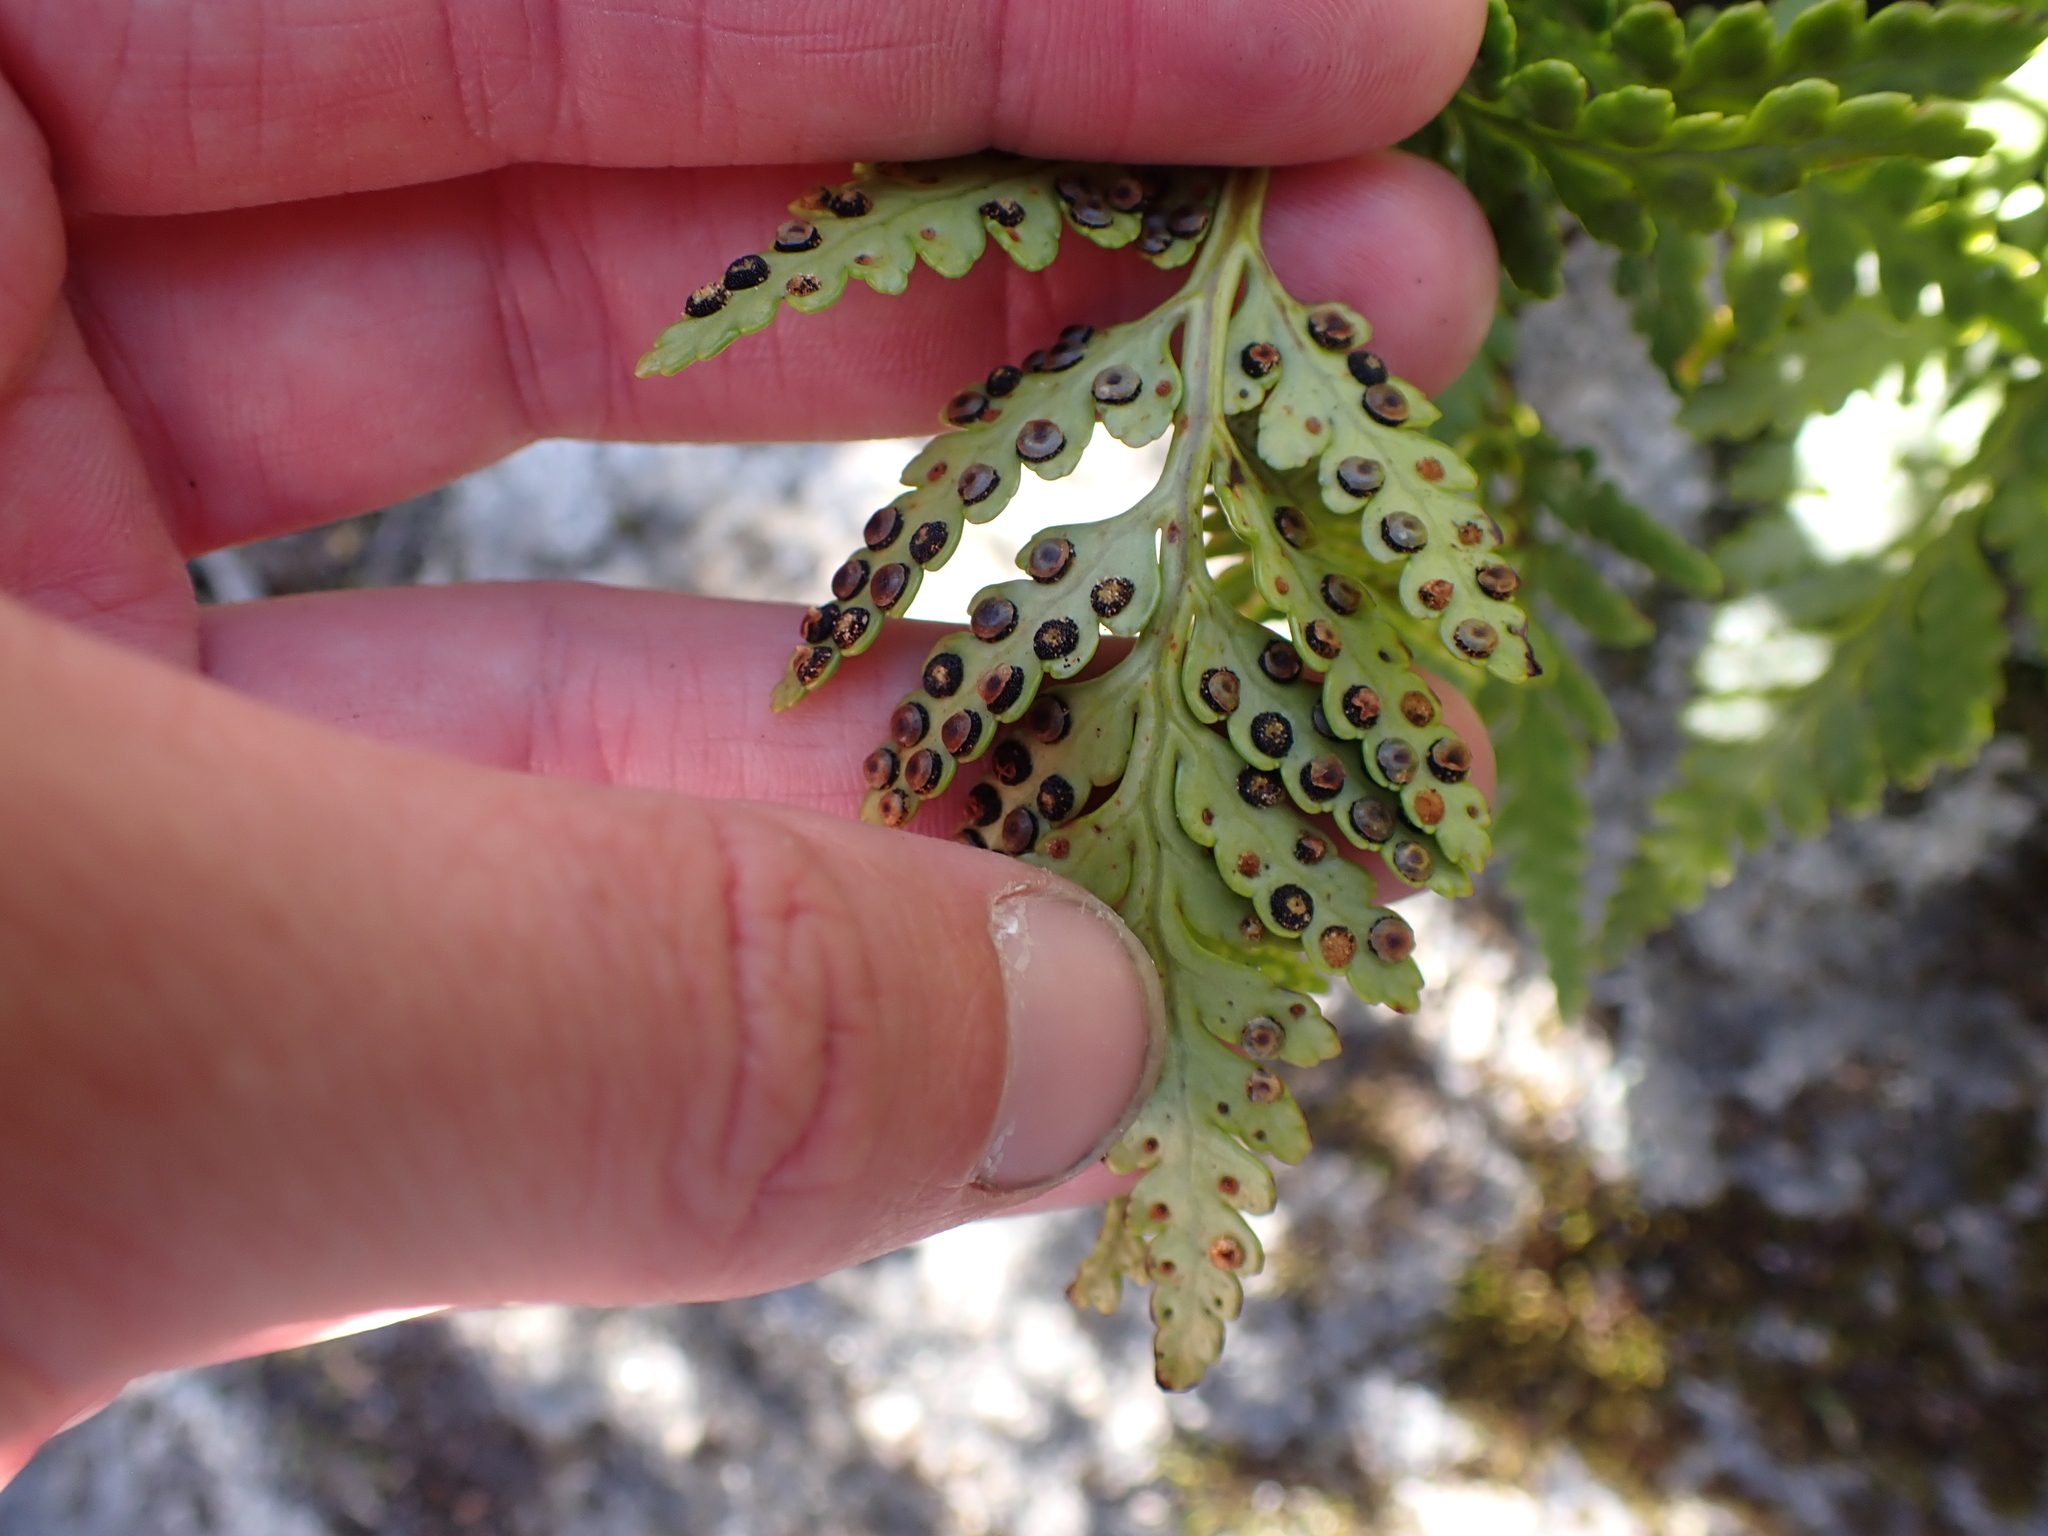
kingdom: Plantae
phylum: Tracheophyta
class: Polypodiopsida
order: Polypodiales
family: Dryopteridaceae
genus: Rumohra
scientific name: Rumohra adiantiformis
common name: Leather fern
